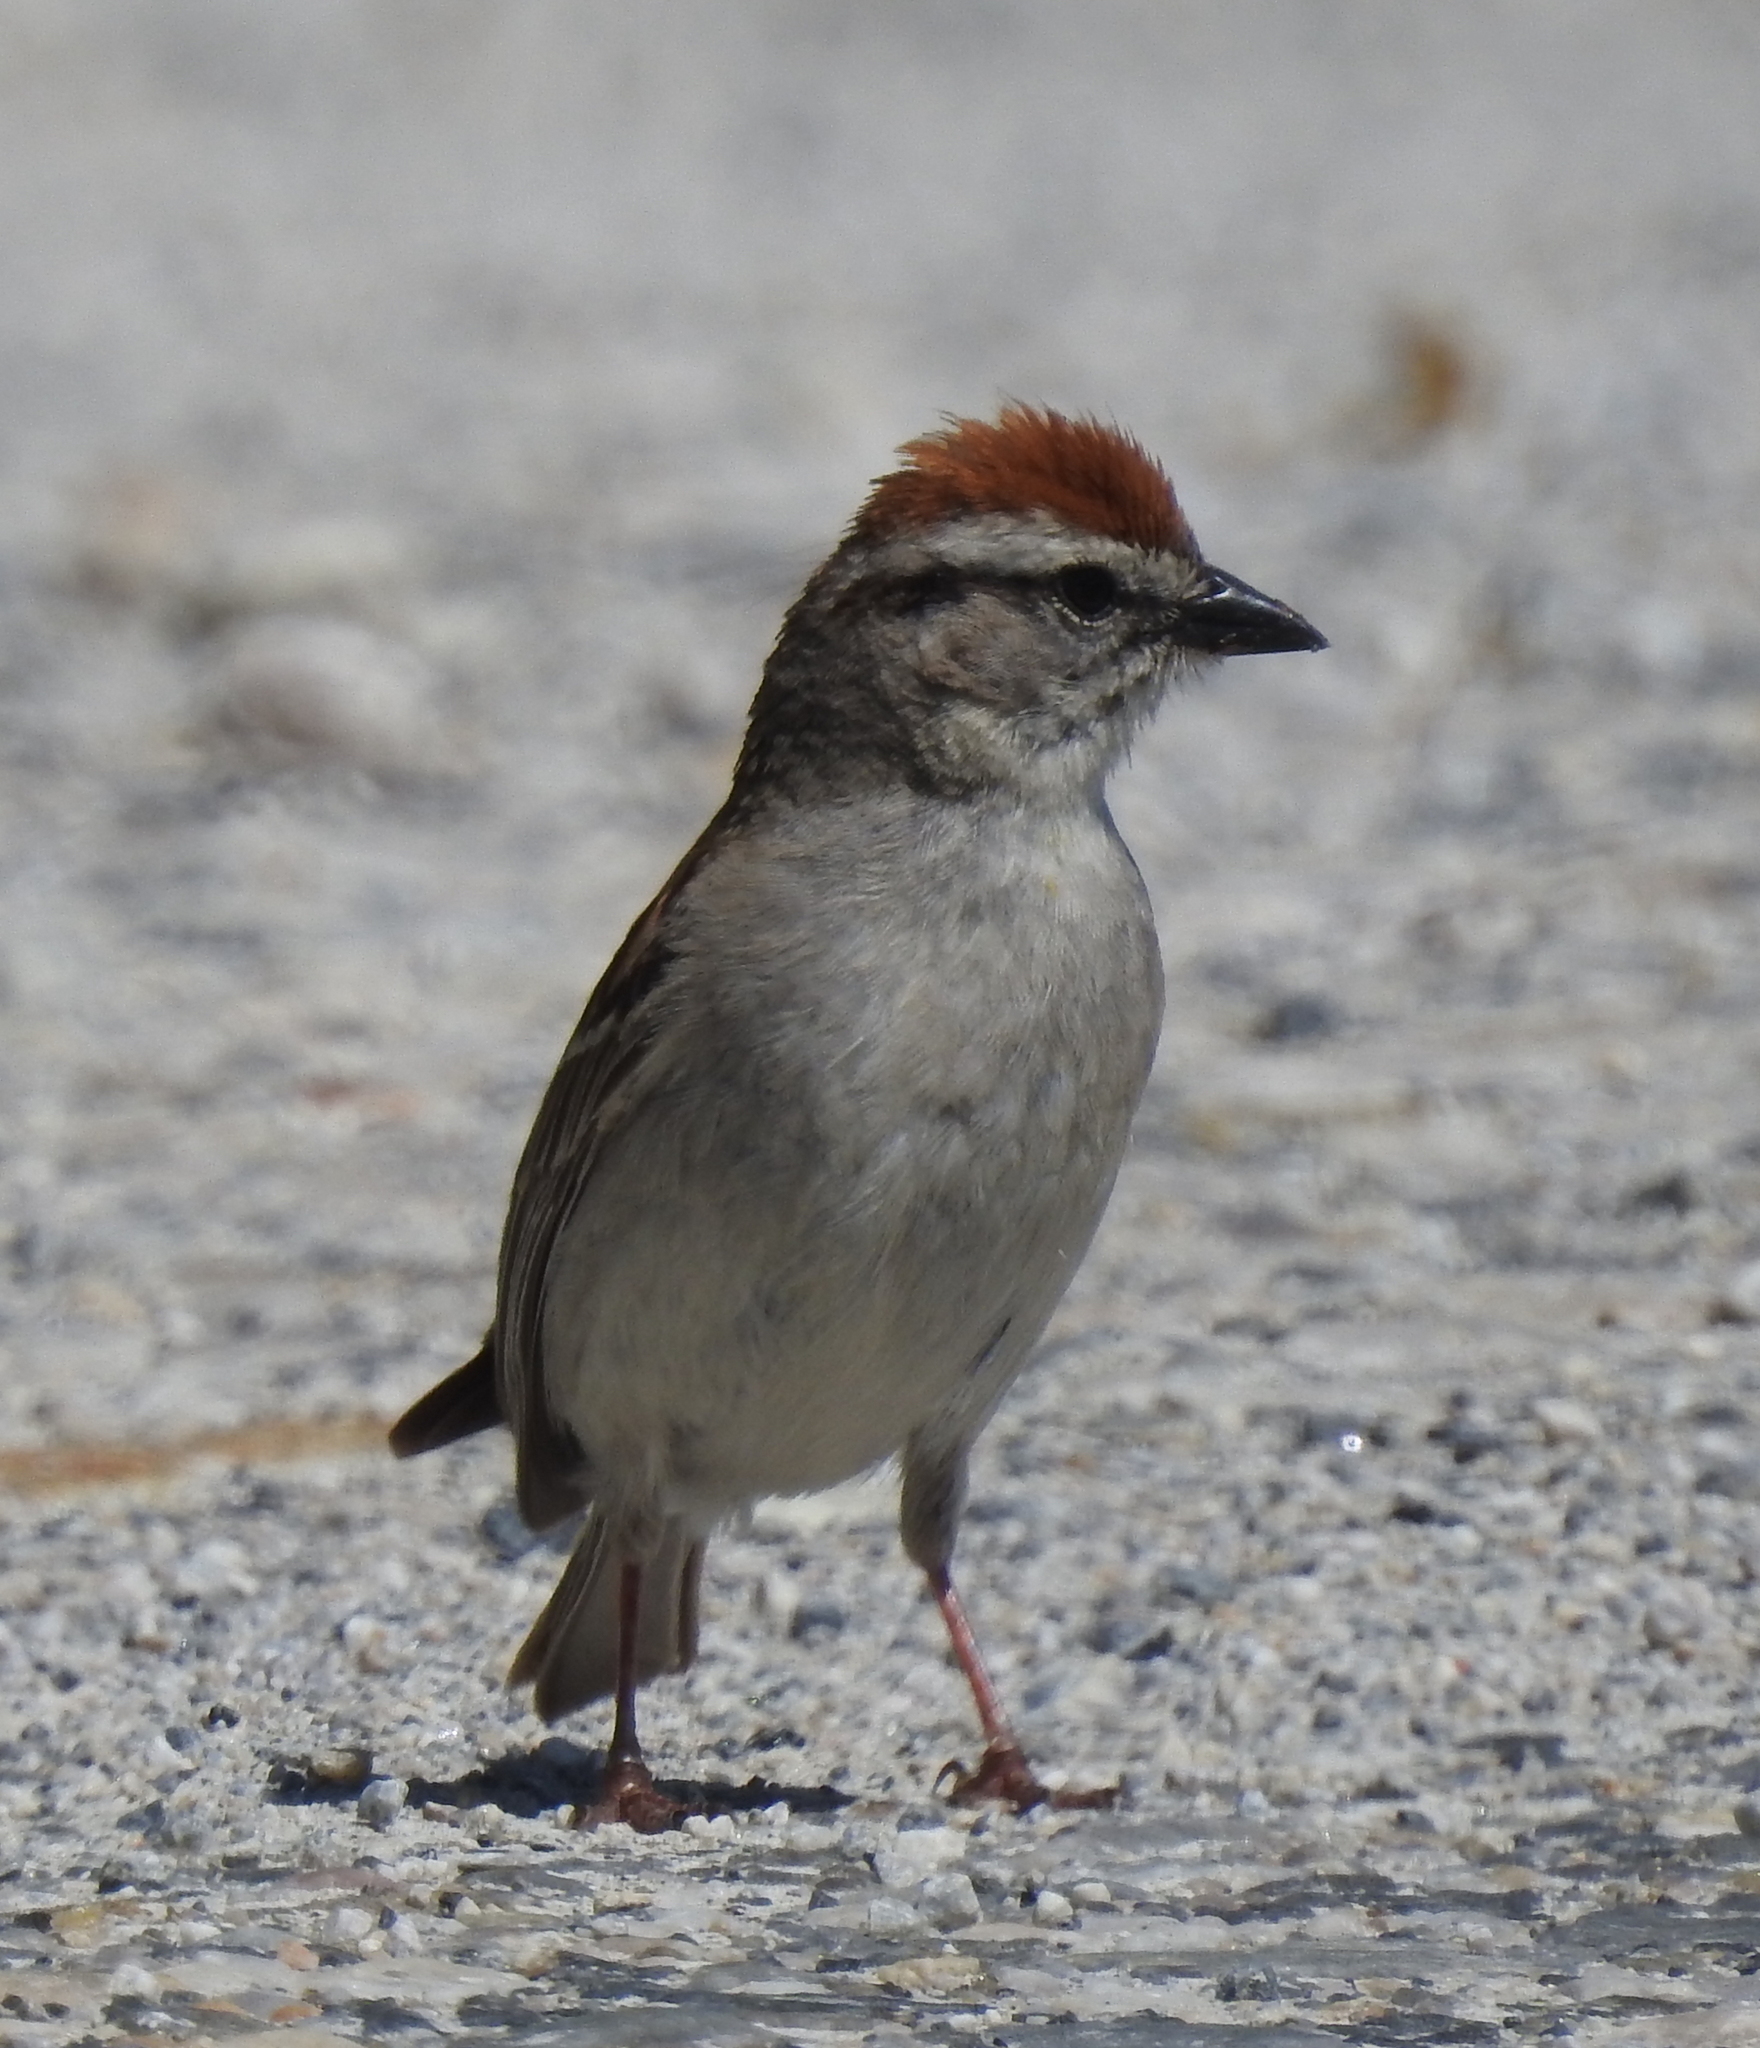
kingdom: Animalia
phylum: Chordata
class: Aves
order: Passeriformes
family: Passerellidae
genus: Spizella
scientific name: Spizella passerina
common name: Chipping sparrow
